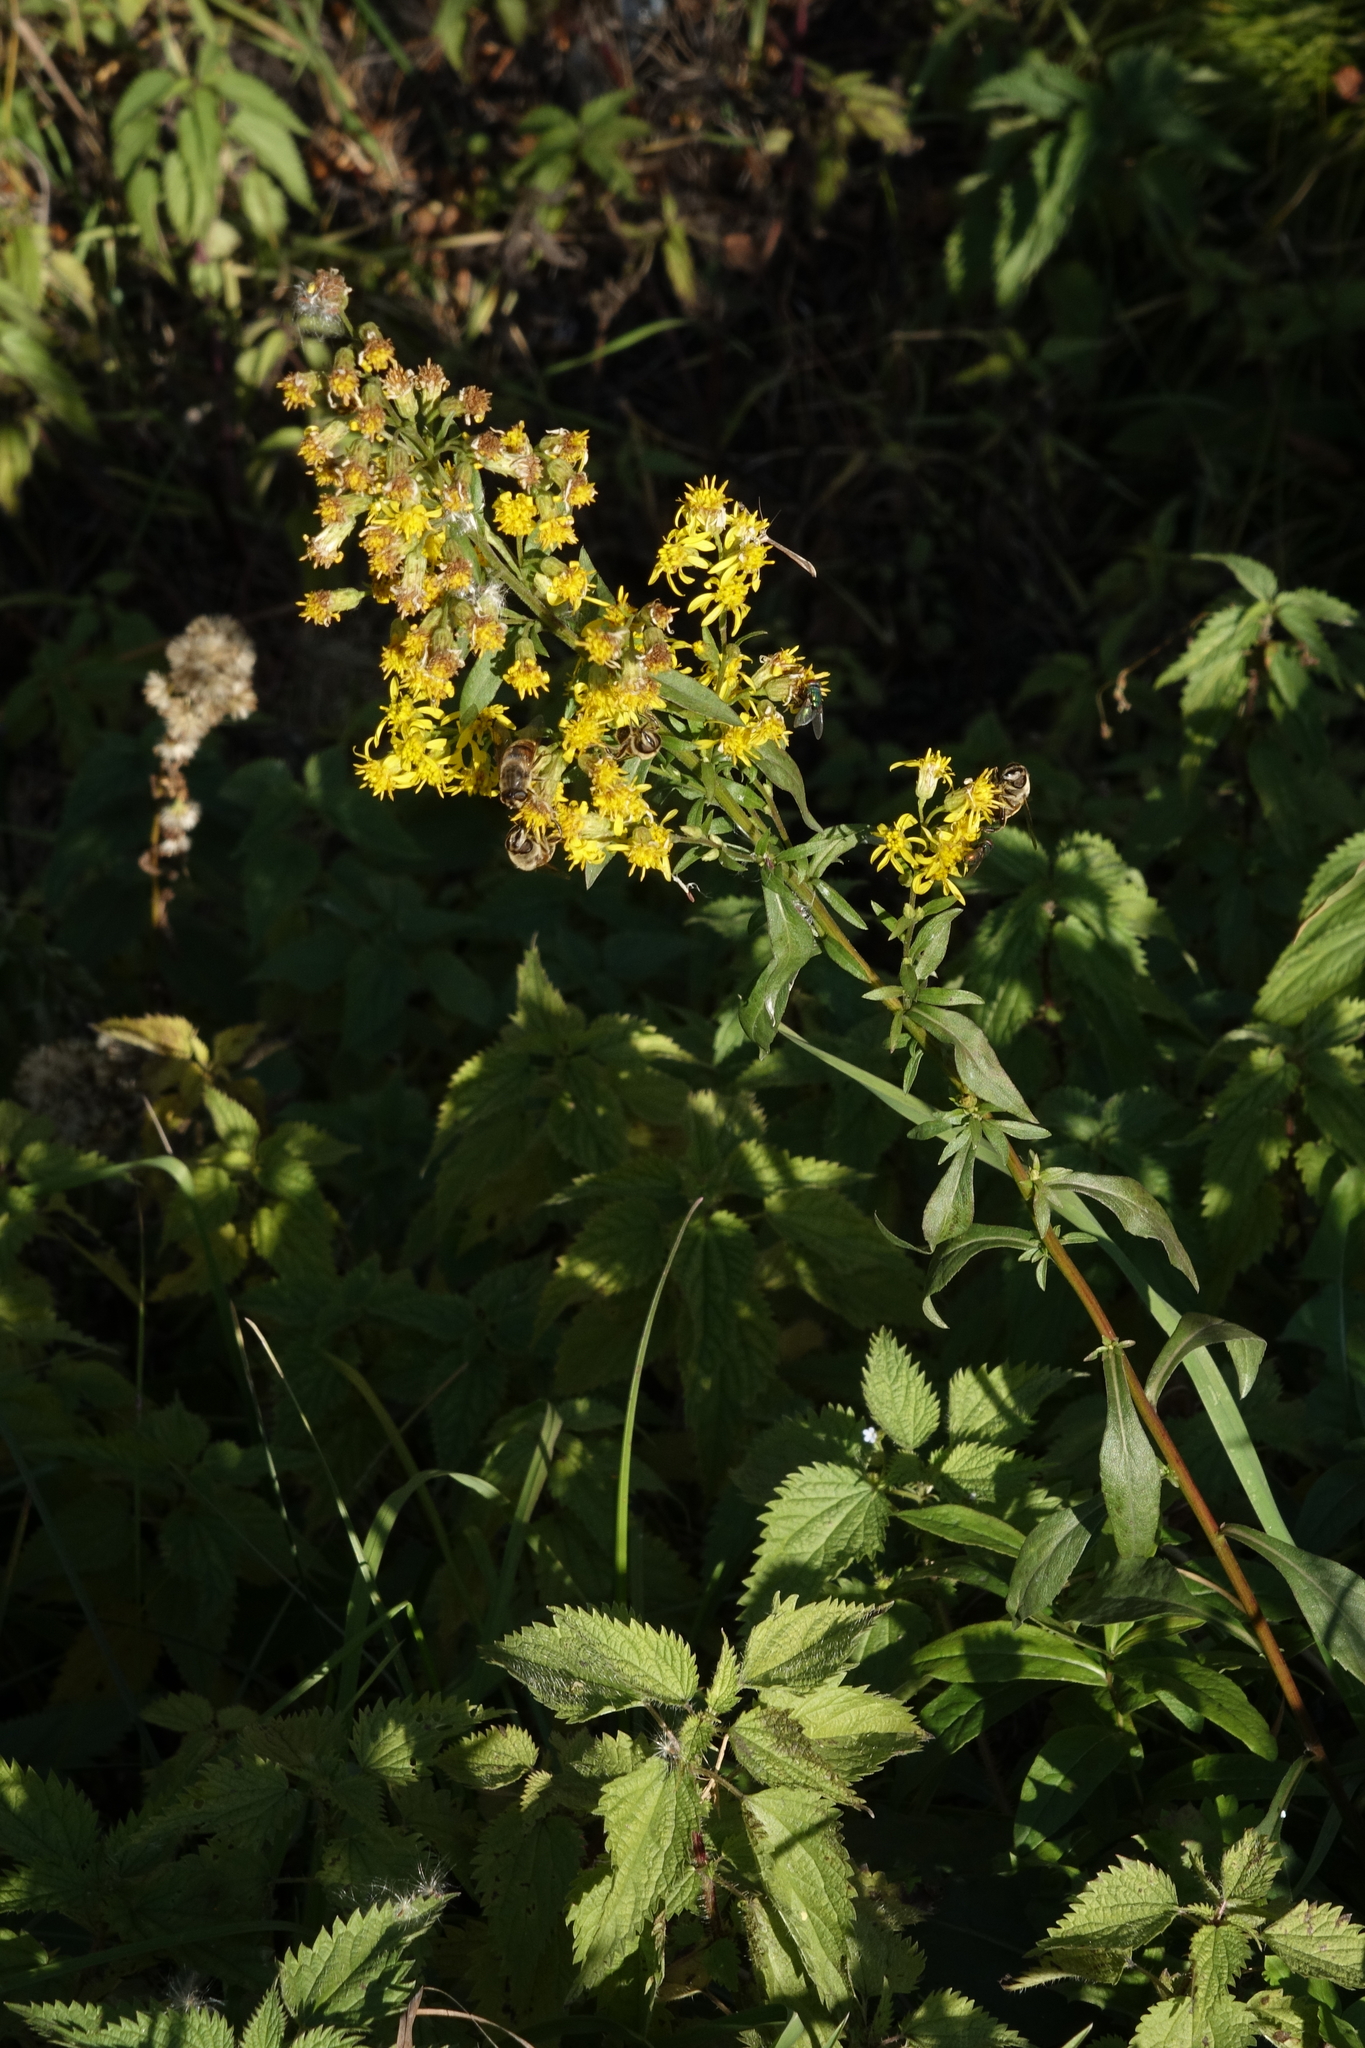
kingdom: Plantae
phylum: Tracheophyta
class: Magnoliopsida
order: Asterales
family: Asteraceae
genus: Solidago
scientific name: Solidago virgaurea
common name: Goldenrod
